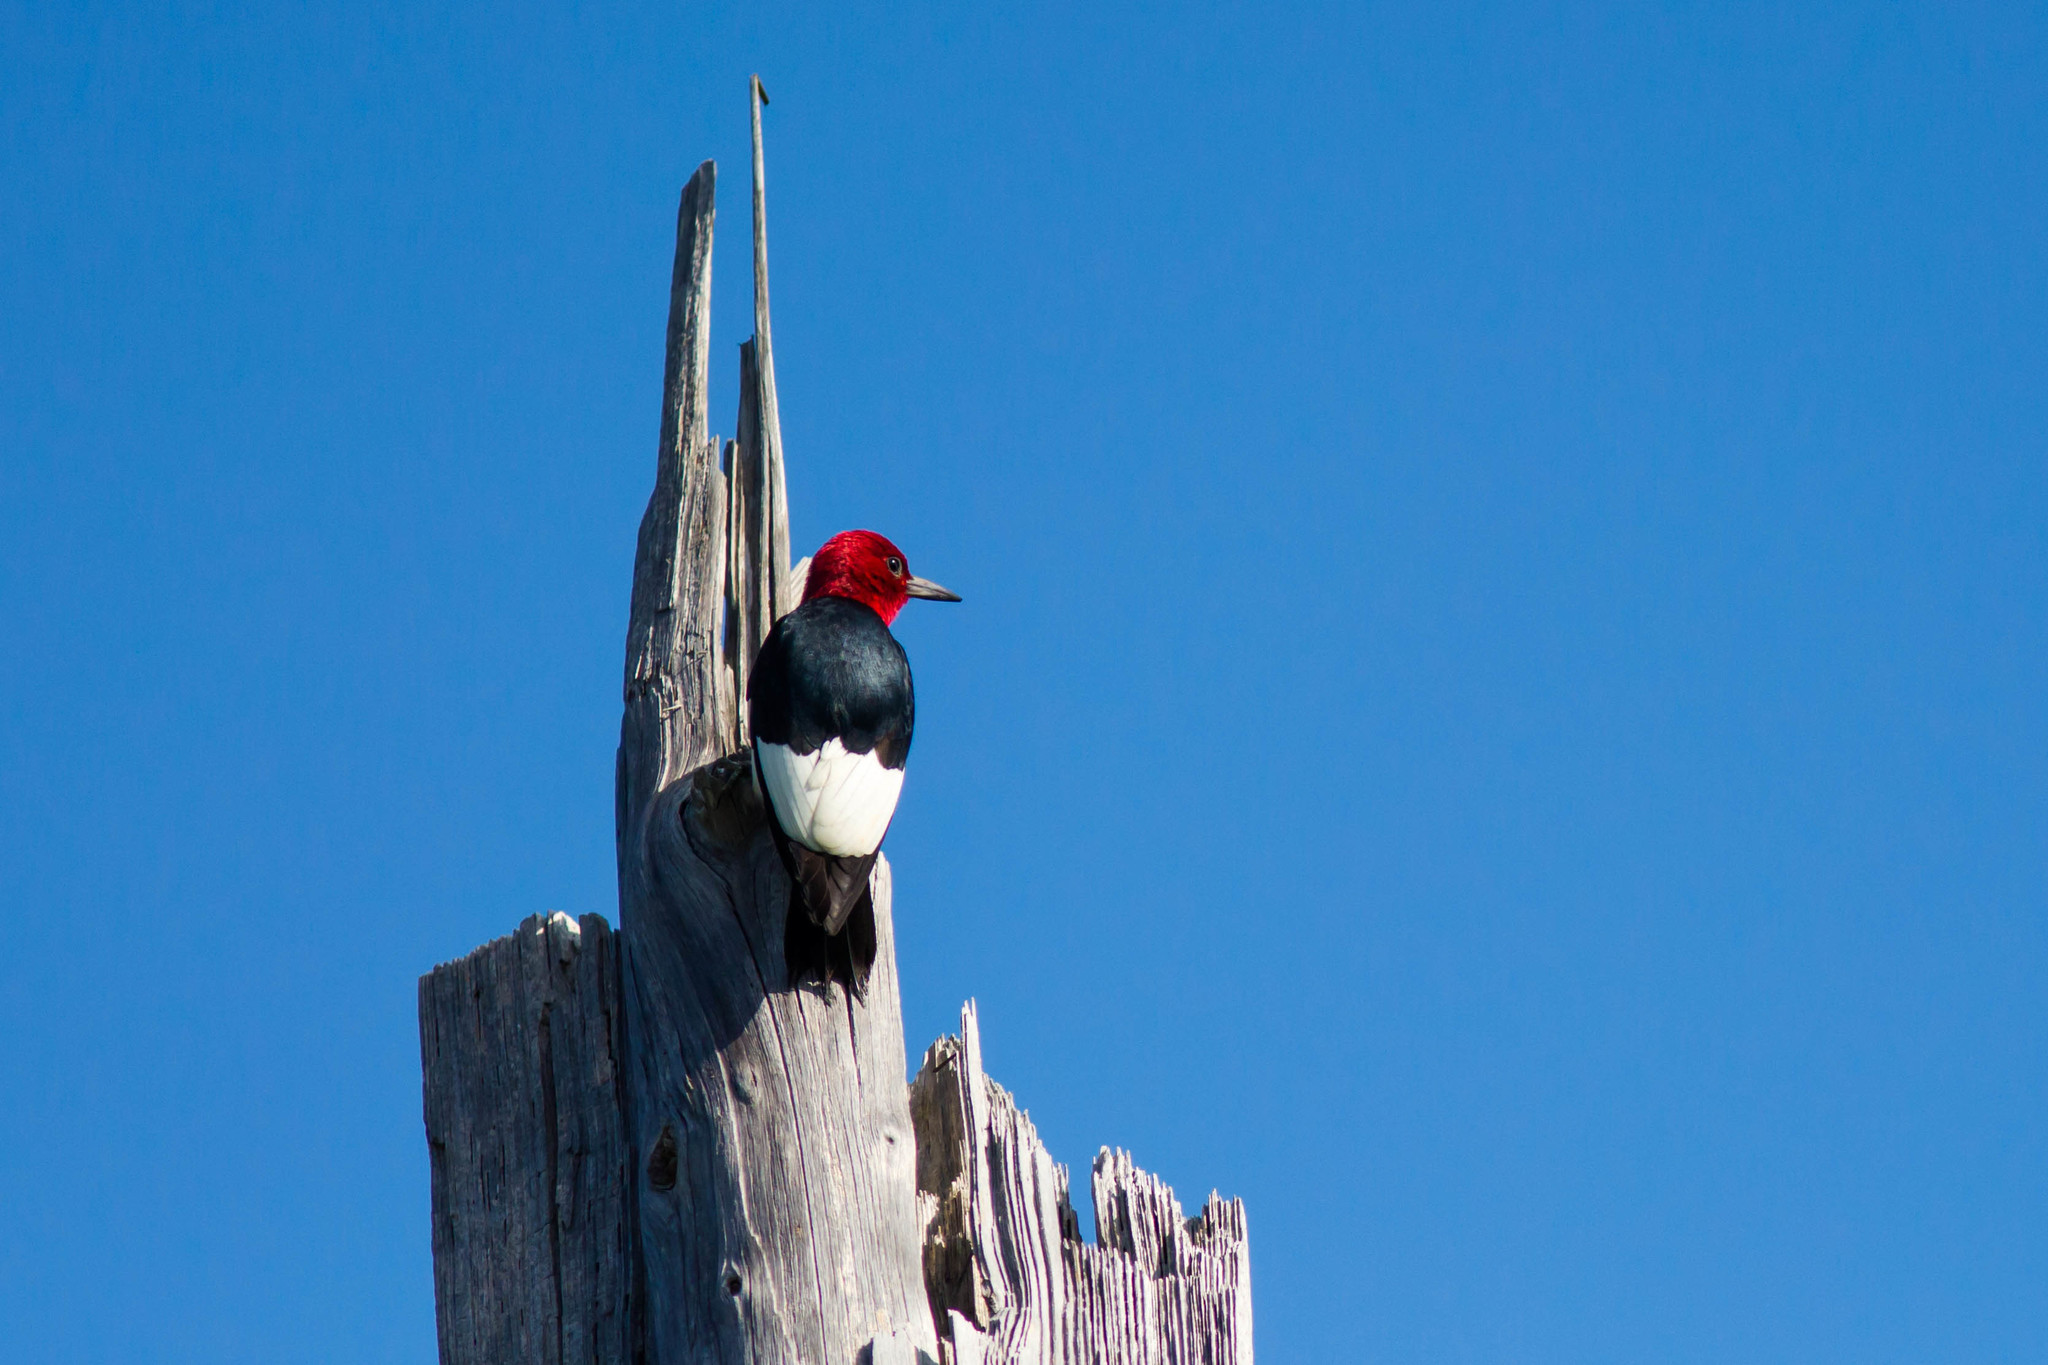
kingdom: Animalia
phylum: Chordata
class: Aves
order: Piciformes
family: Picidae
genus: Melanerpes
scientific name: Melanerpes erythrocephalus
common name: Red-headed woodpecker
